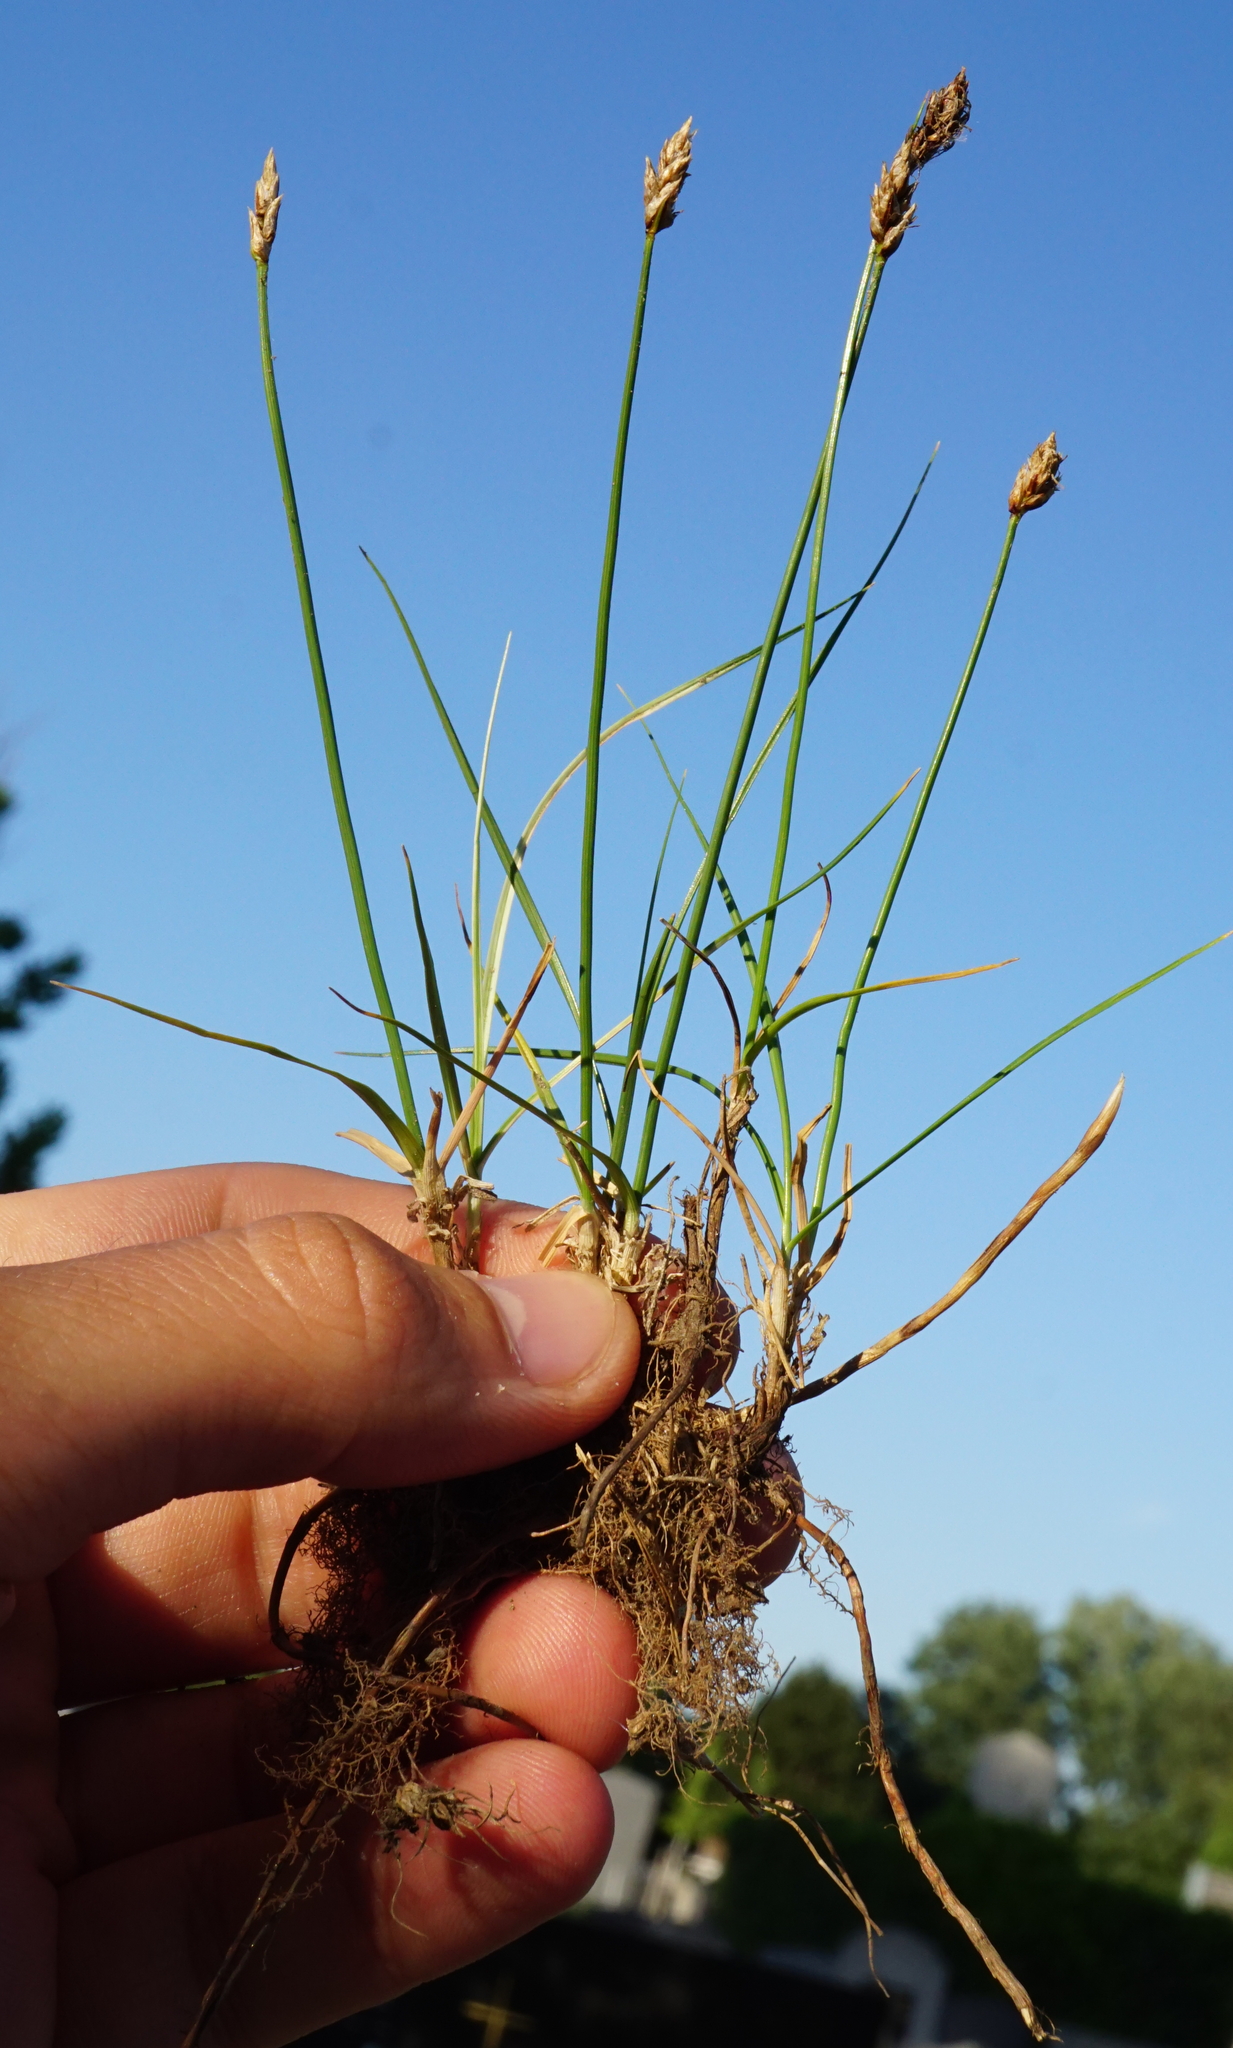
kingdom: Plantae
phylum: Tracheophyta
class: Liliopsida
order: Poales
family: Cyperaceae
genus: Carex
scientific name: Carex stenophylla
